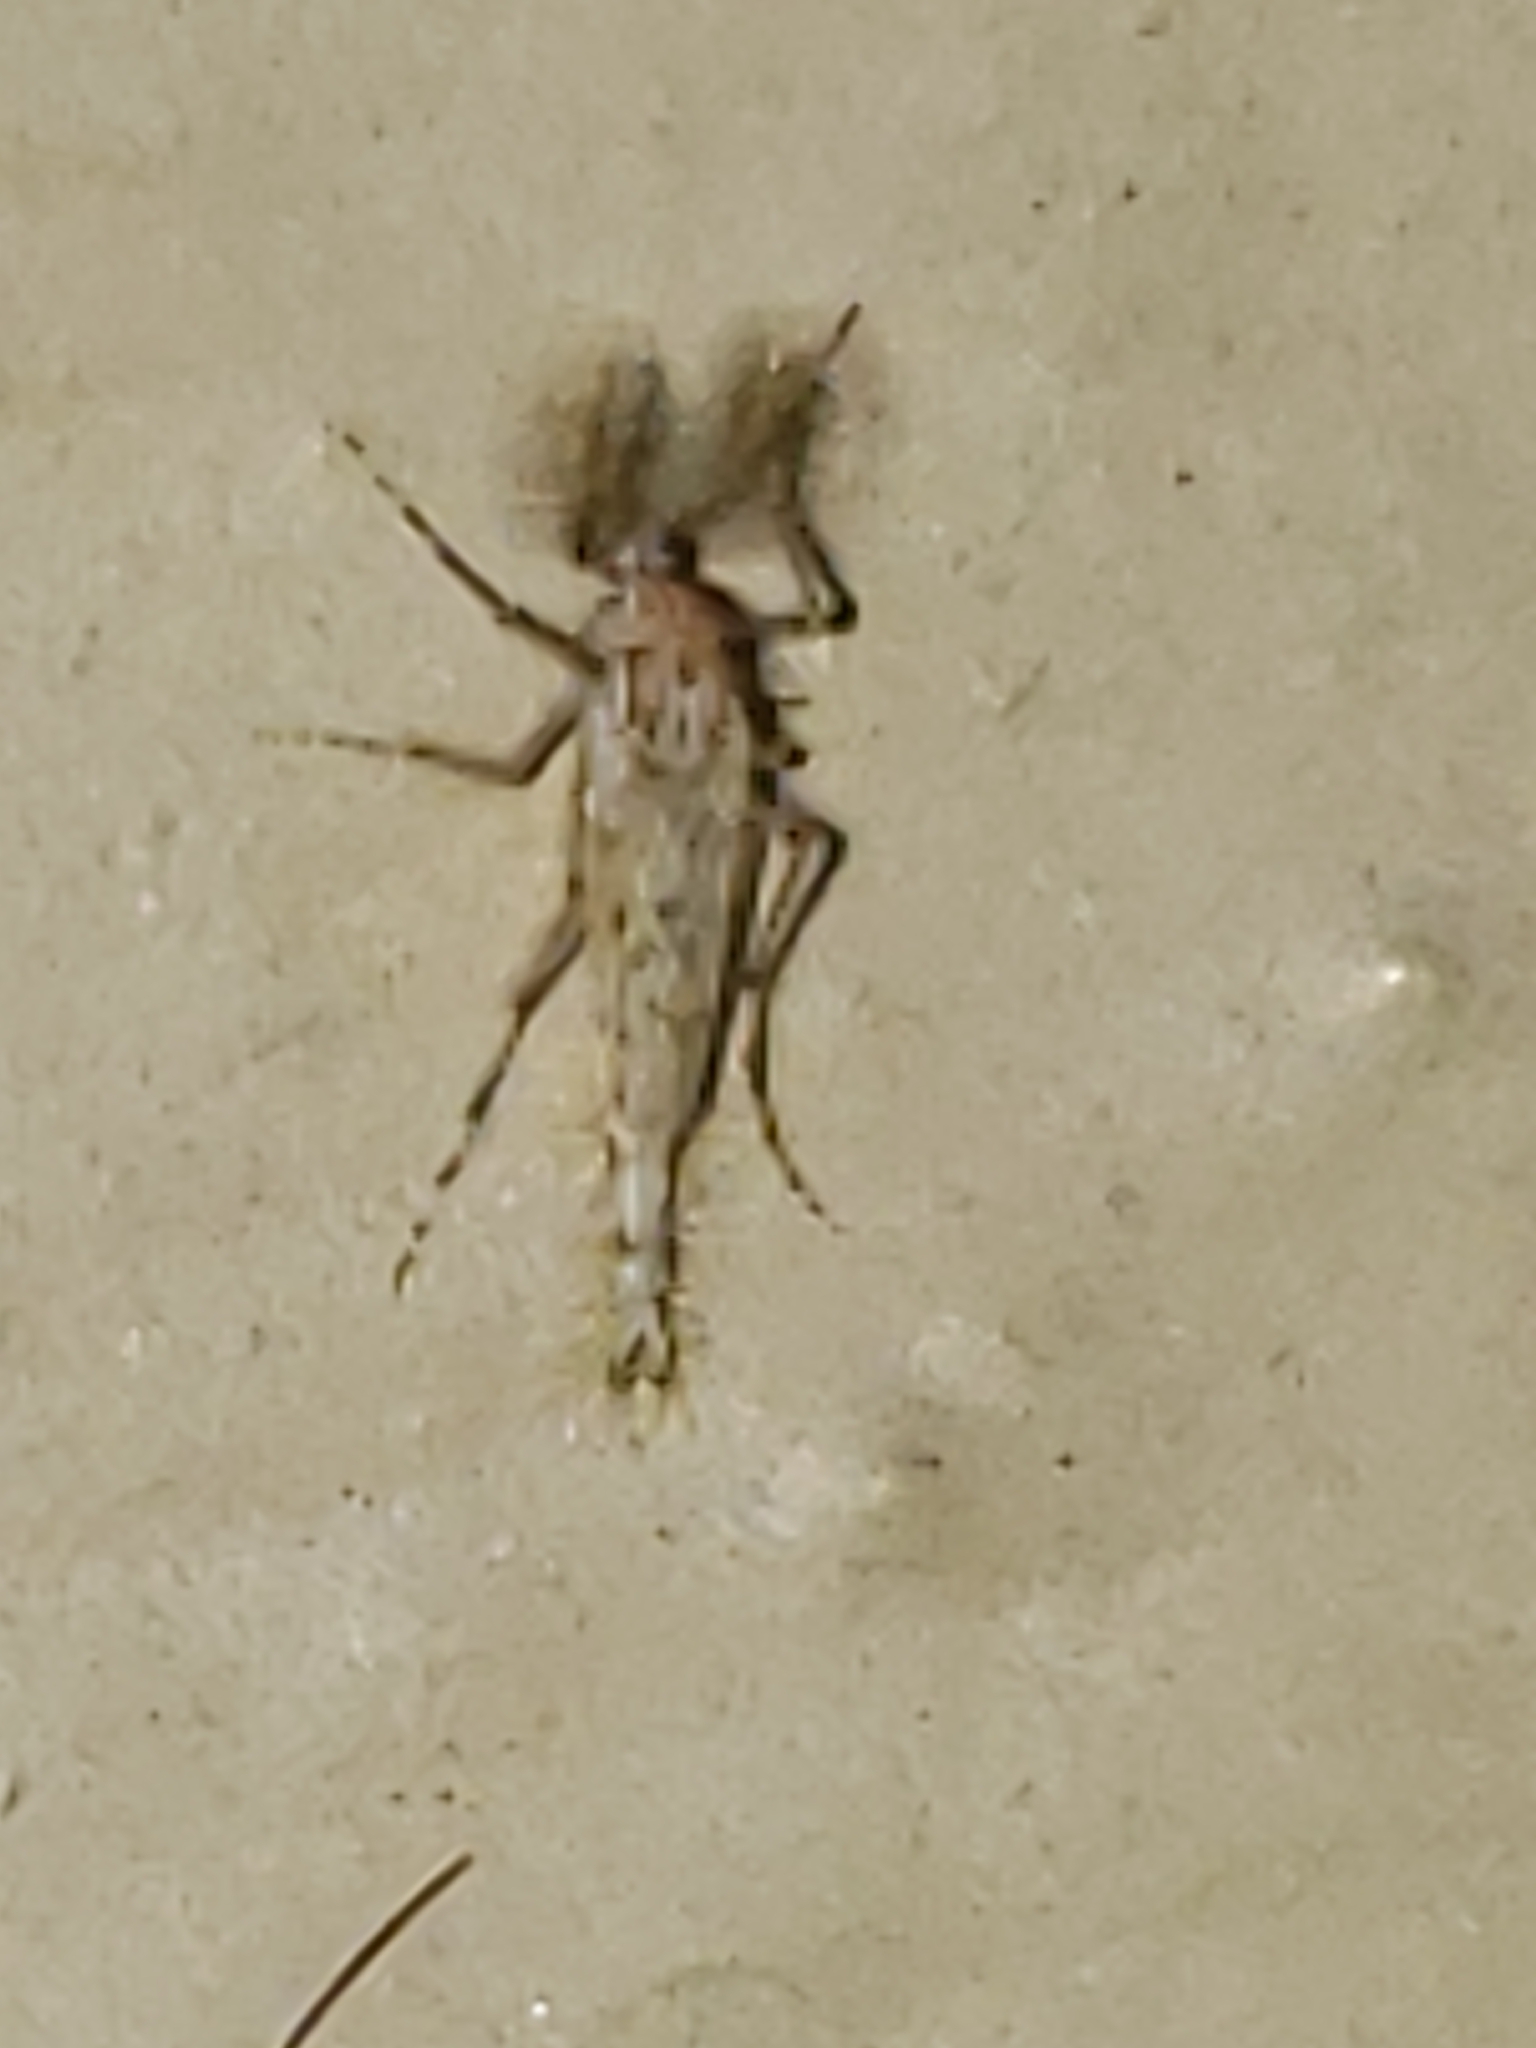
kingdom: Animalia
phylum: Arthropoda
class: Insecta
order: Diptera
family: Chaoboridae
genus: Chaoborus
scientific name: Chaoborus punctipennis
